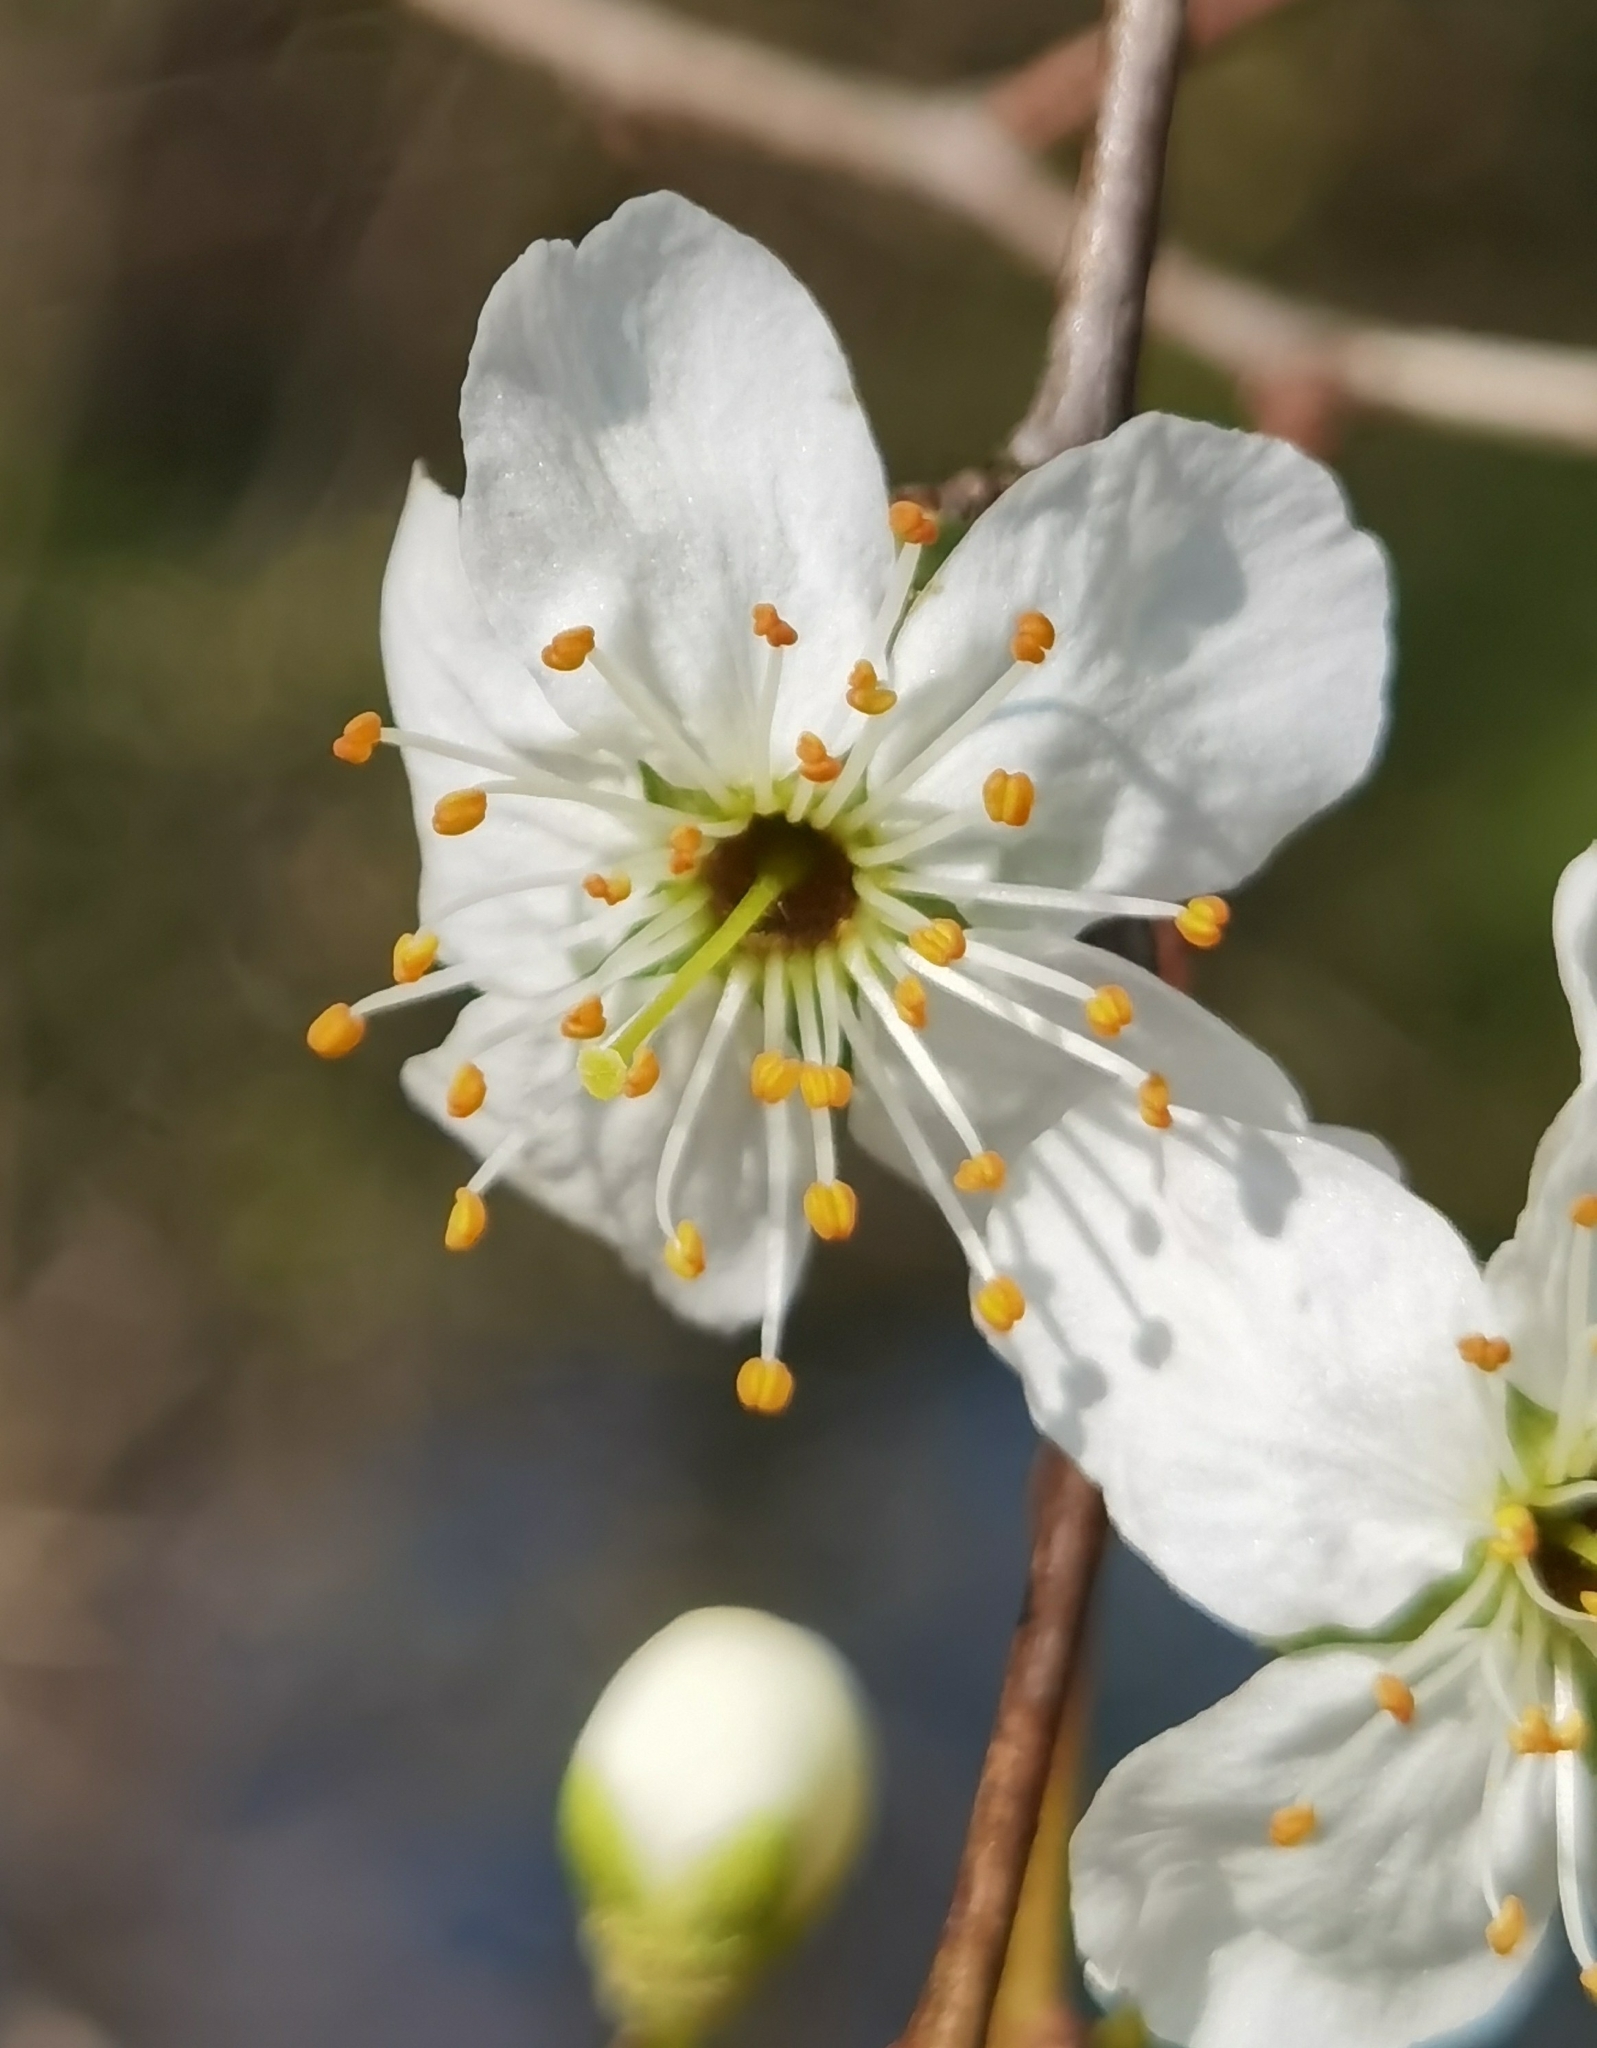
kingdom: Plantae
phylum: Tracheophyta
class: Magnoliopsida
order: Rosales
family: Rosaceae
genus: Prunus
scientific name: Prunus spinosa
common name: Blackthorn
